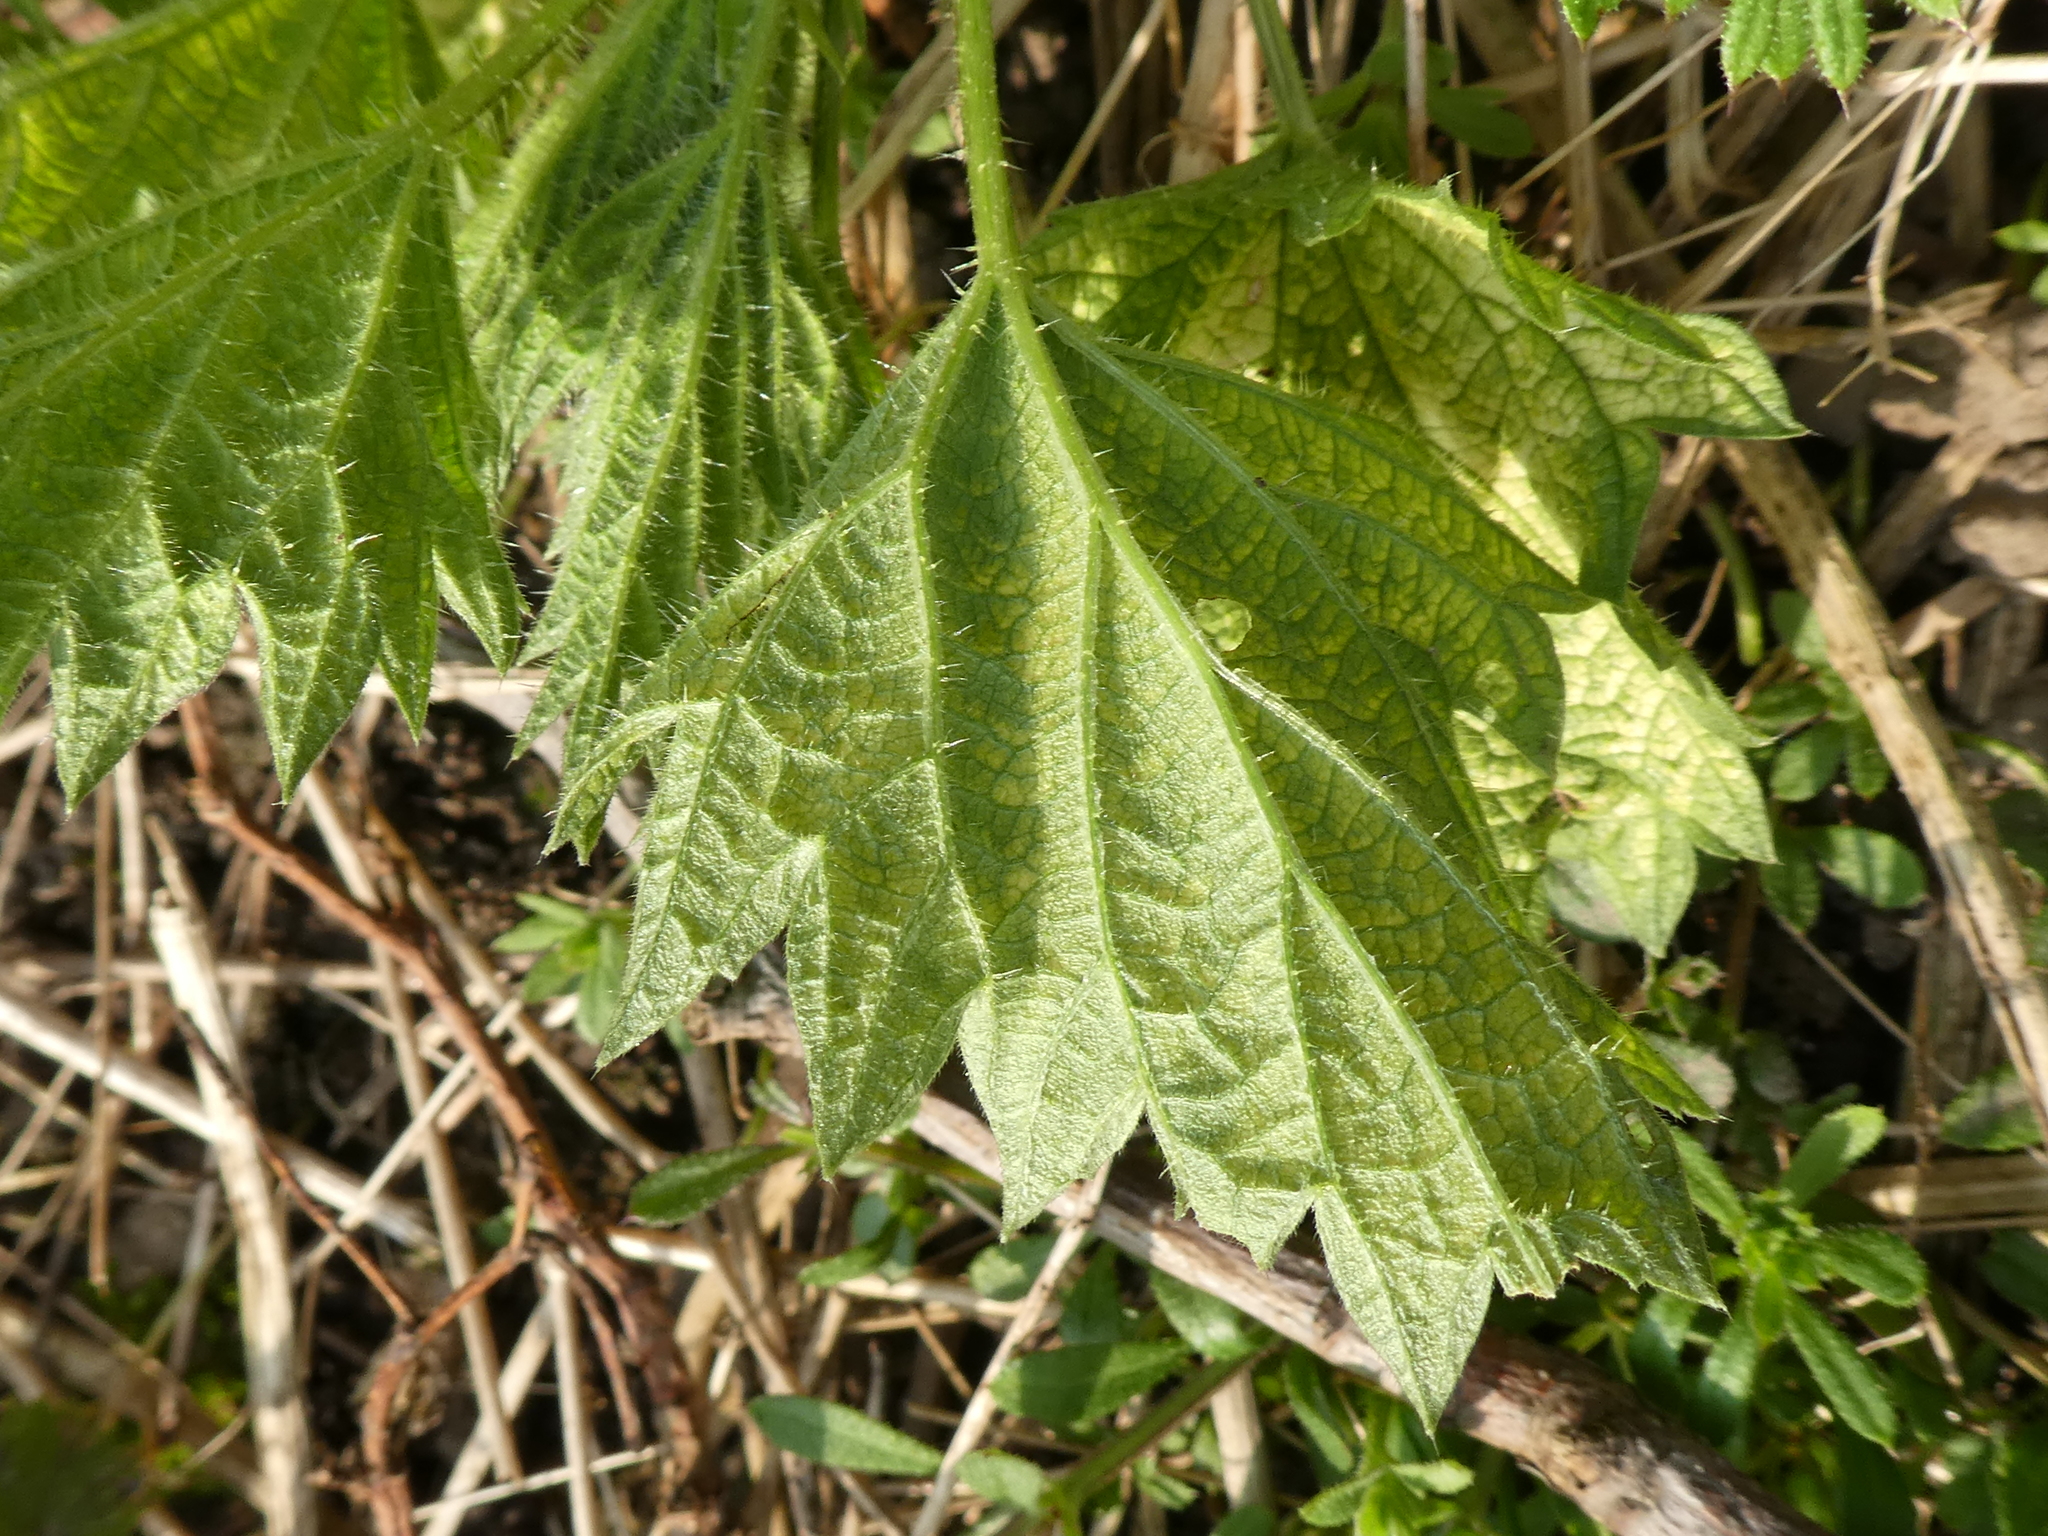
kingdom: Plantae
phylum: Tracheophyta
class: Magnoliopsida
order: Rosales
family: Urticaceae
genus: Urtica
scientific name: Urtica dioica
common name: Common nettle
